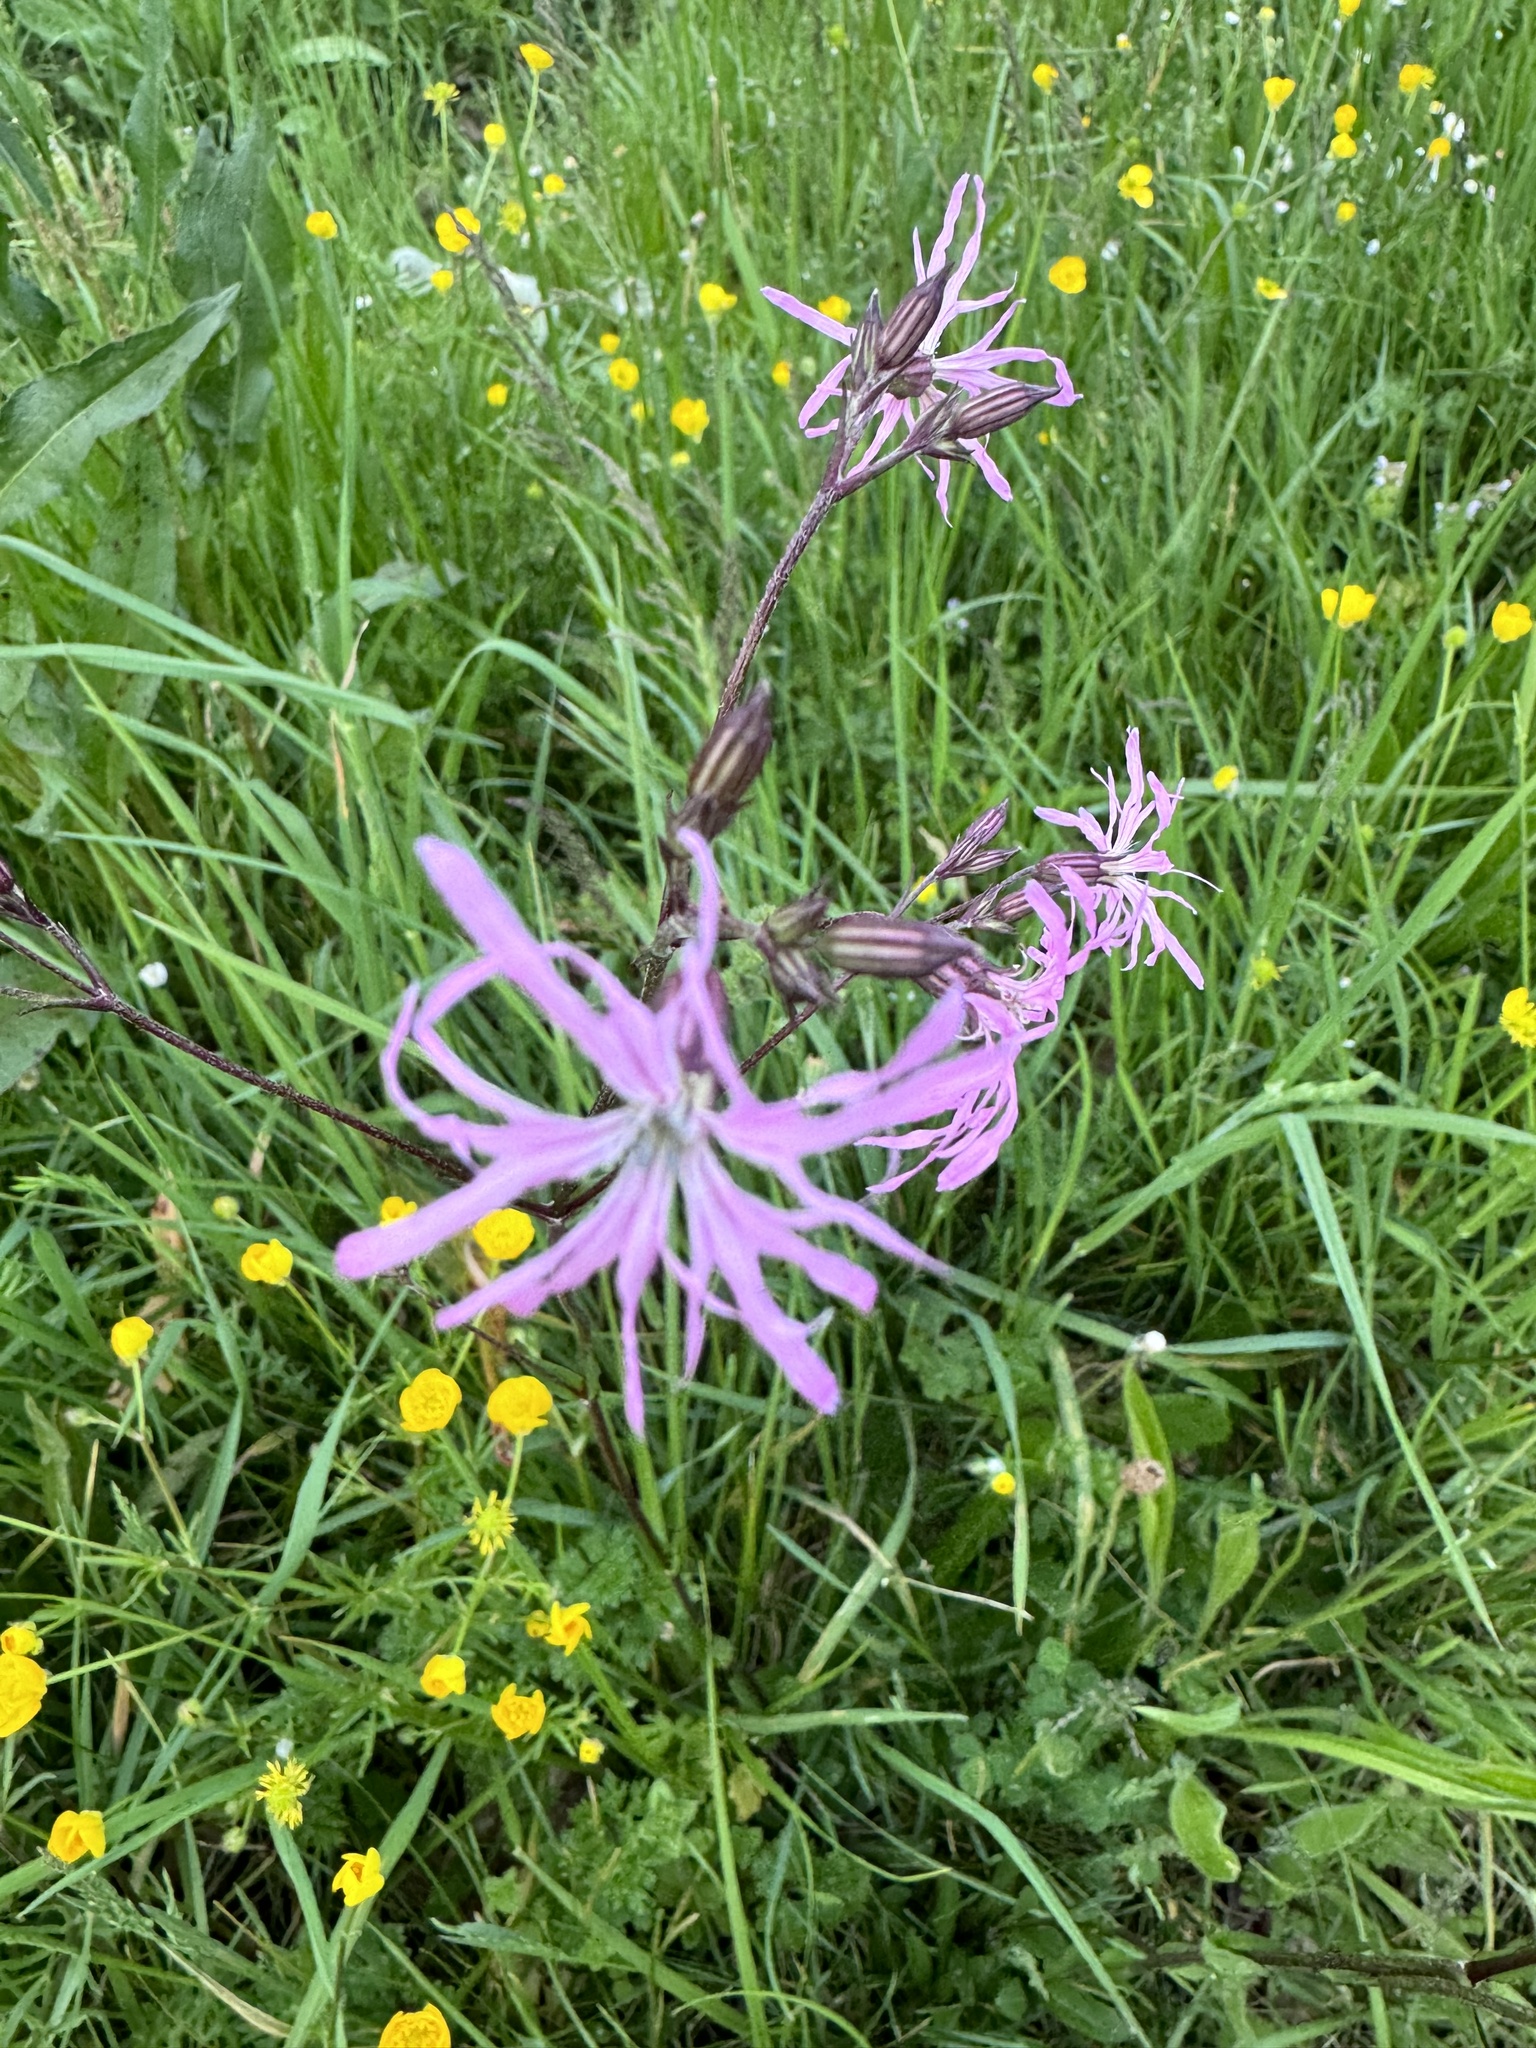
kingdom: Plantae
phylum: Tracheophyta
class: Magnoliopsida
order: Caryophyllales
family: Caryophyllaceae
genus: Silene
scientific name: Silene flos-cuculi
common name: Ragged-robin
